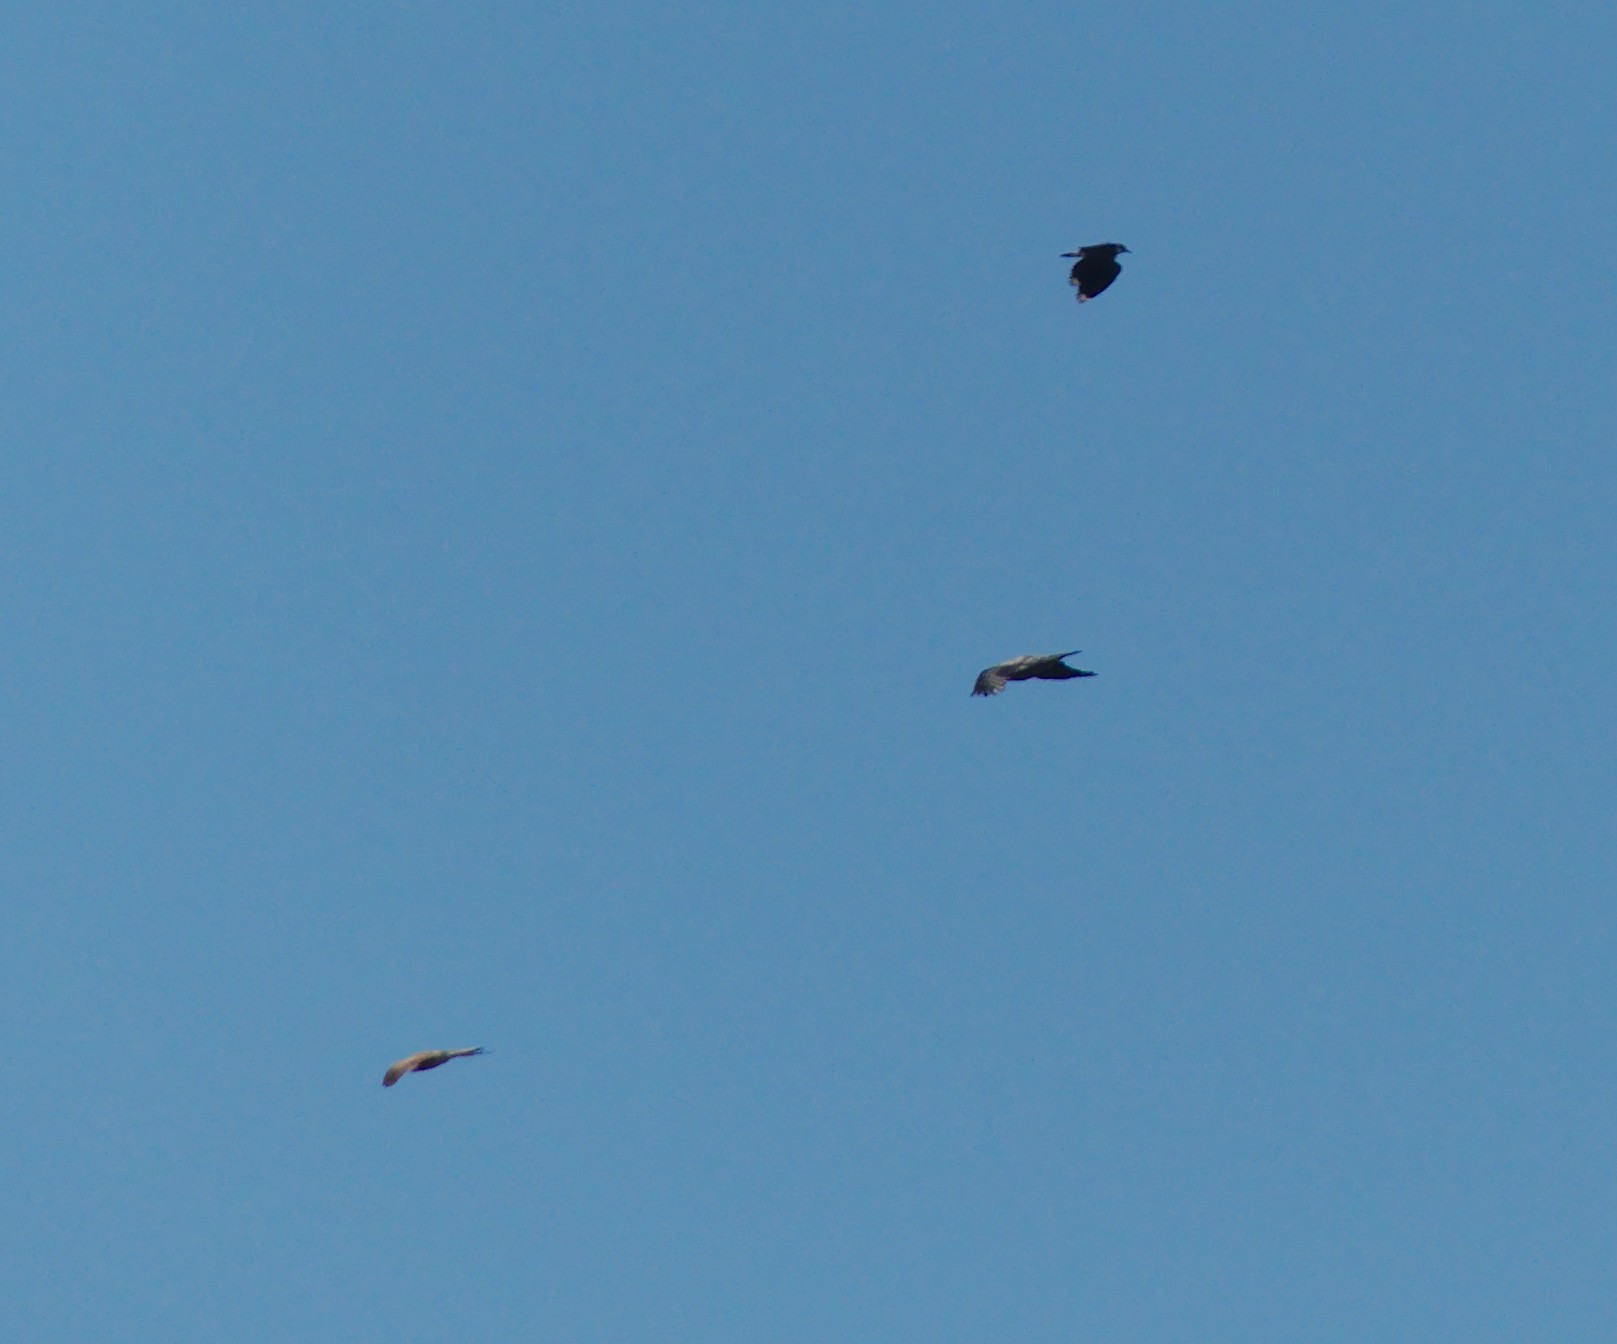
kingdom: Animalia
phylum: Chordata
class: Aves
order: Charadriiformes
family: Charadriidae
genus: Vanellus
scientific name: Vanellus vanellus
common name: Northern lapwing
